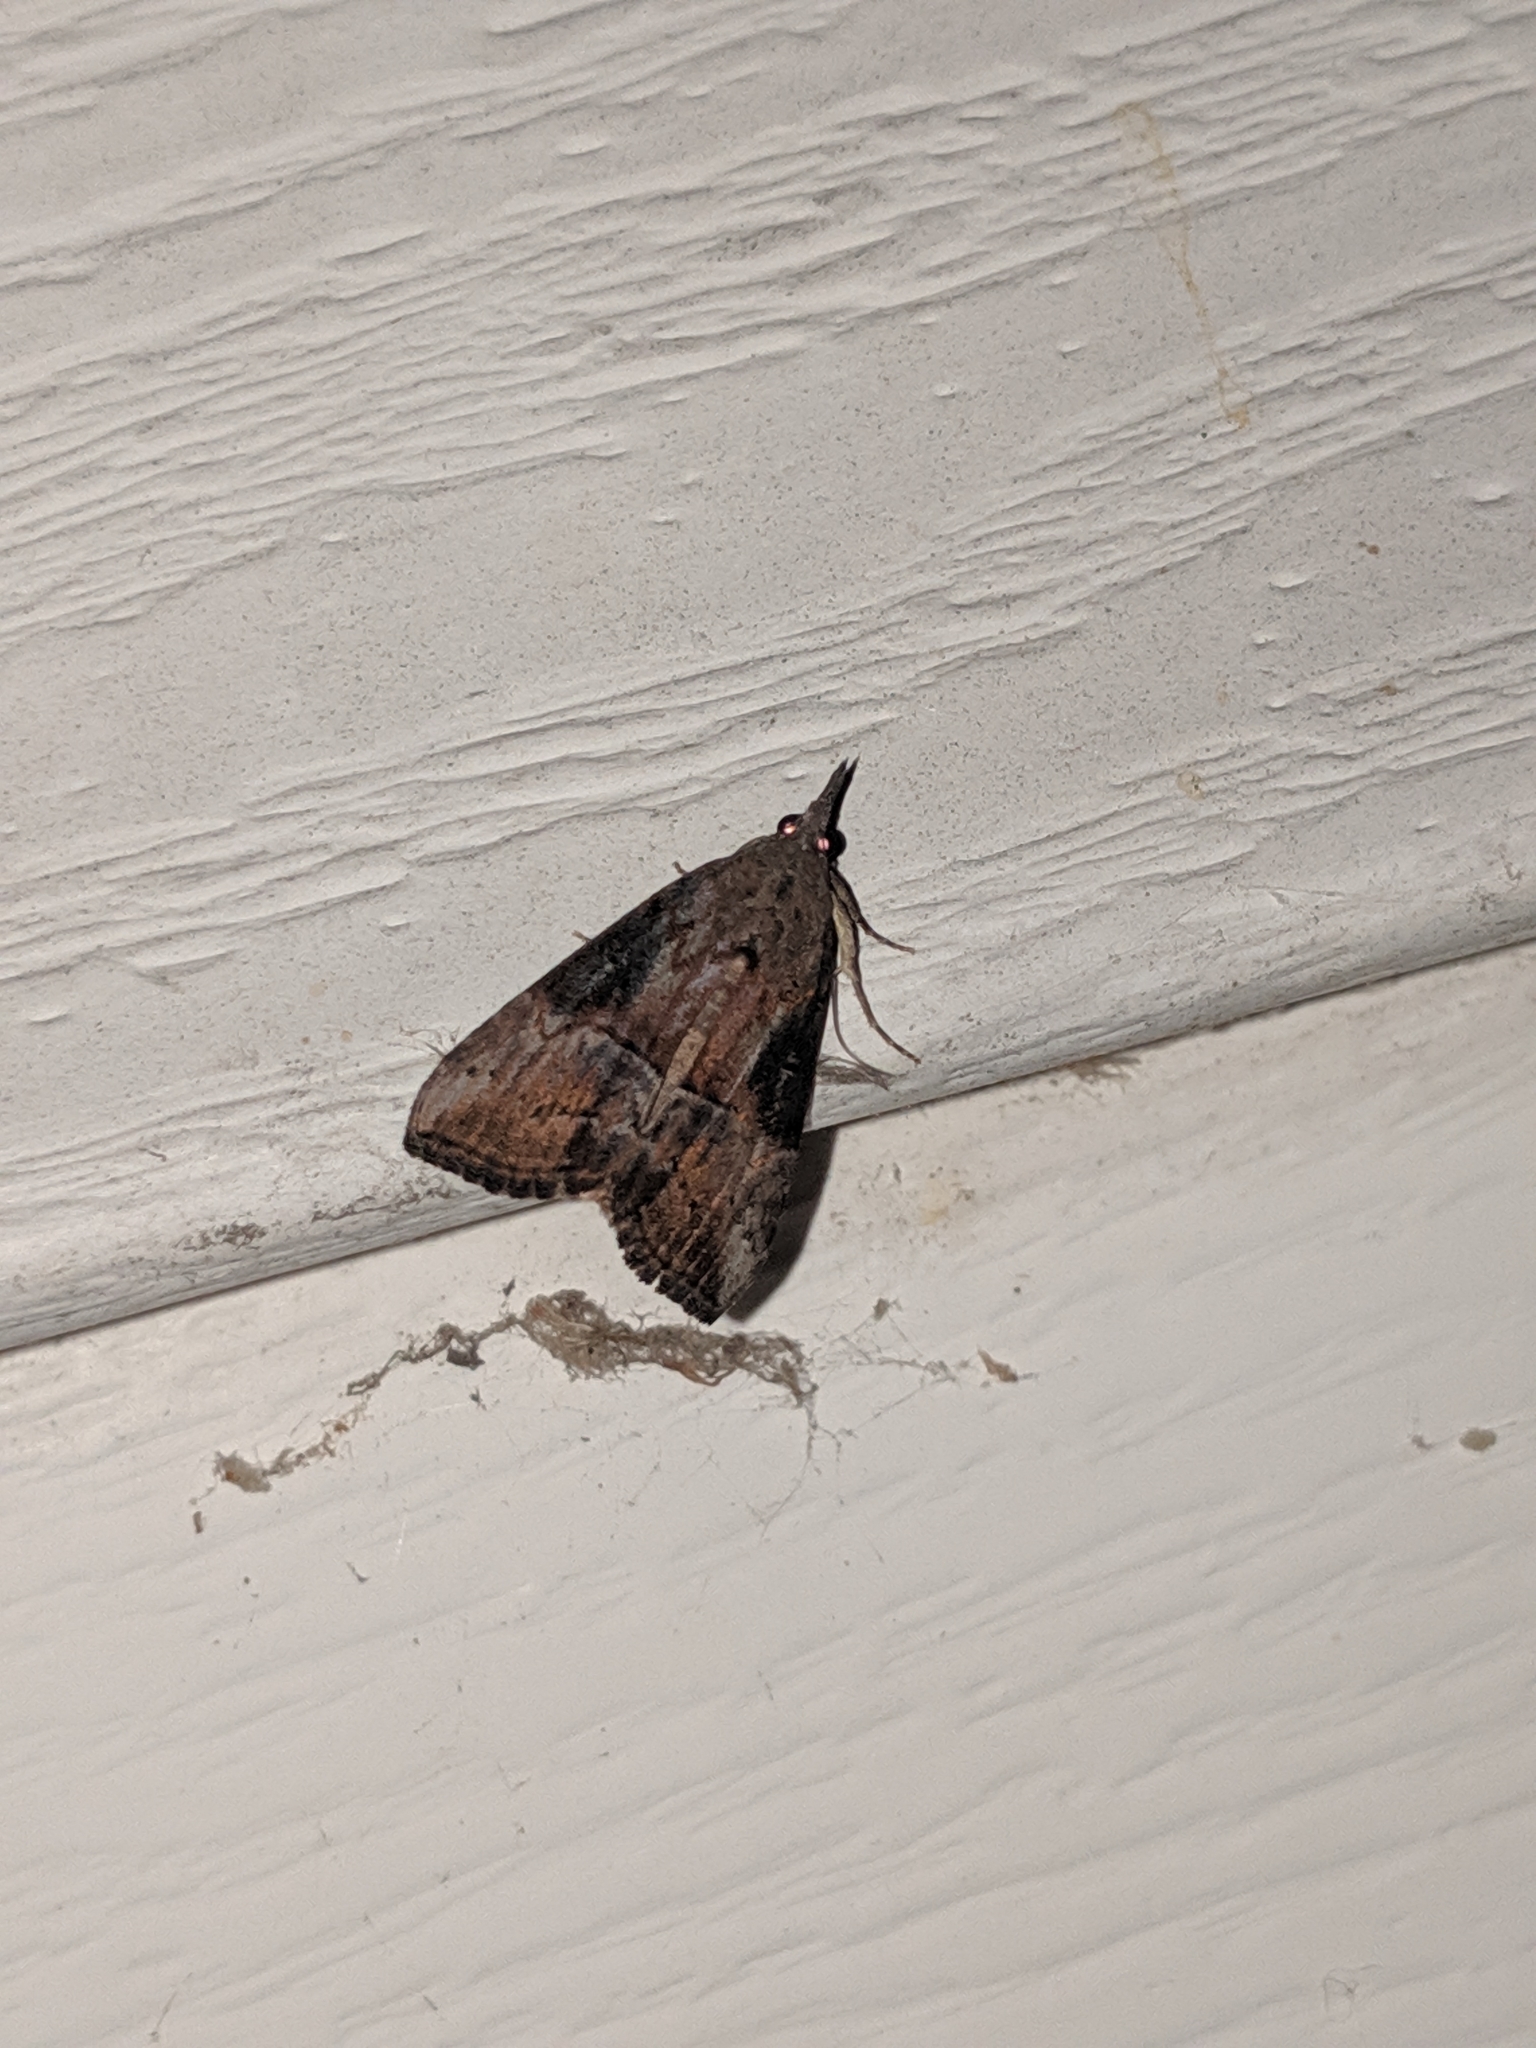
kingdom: Animalia
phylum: Arthropoda
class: Insecta
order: Lepidoptera
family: Erebidae
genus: Hypena
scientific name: Hypena scabra
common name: Green cloverworm
